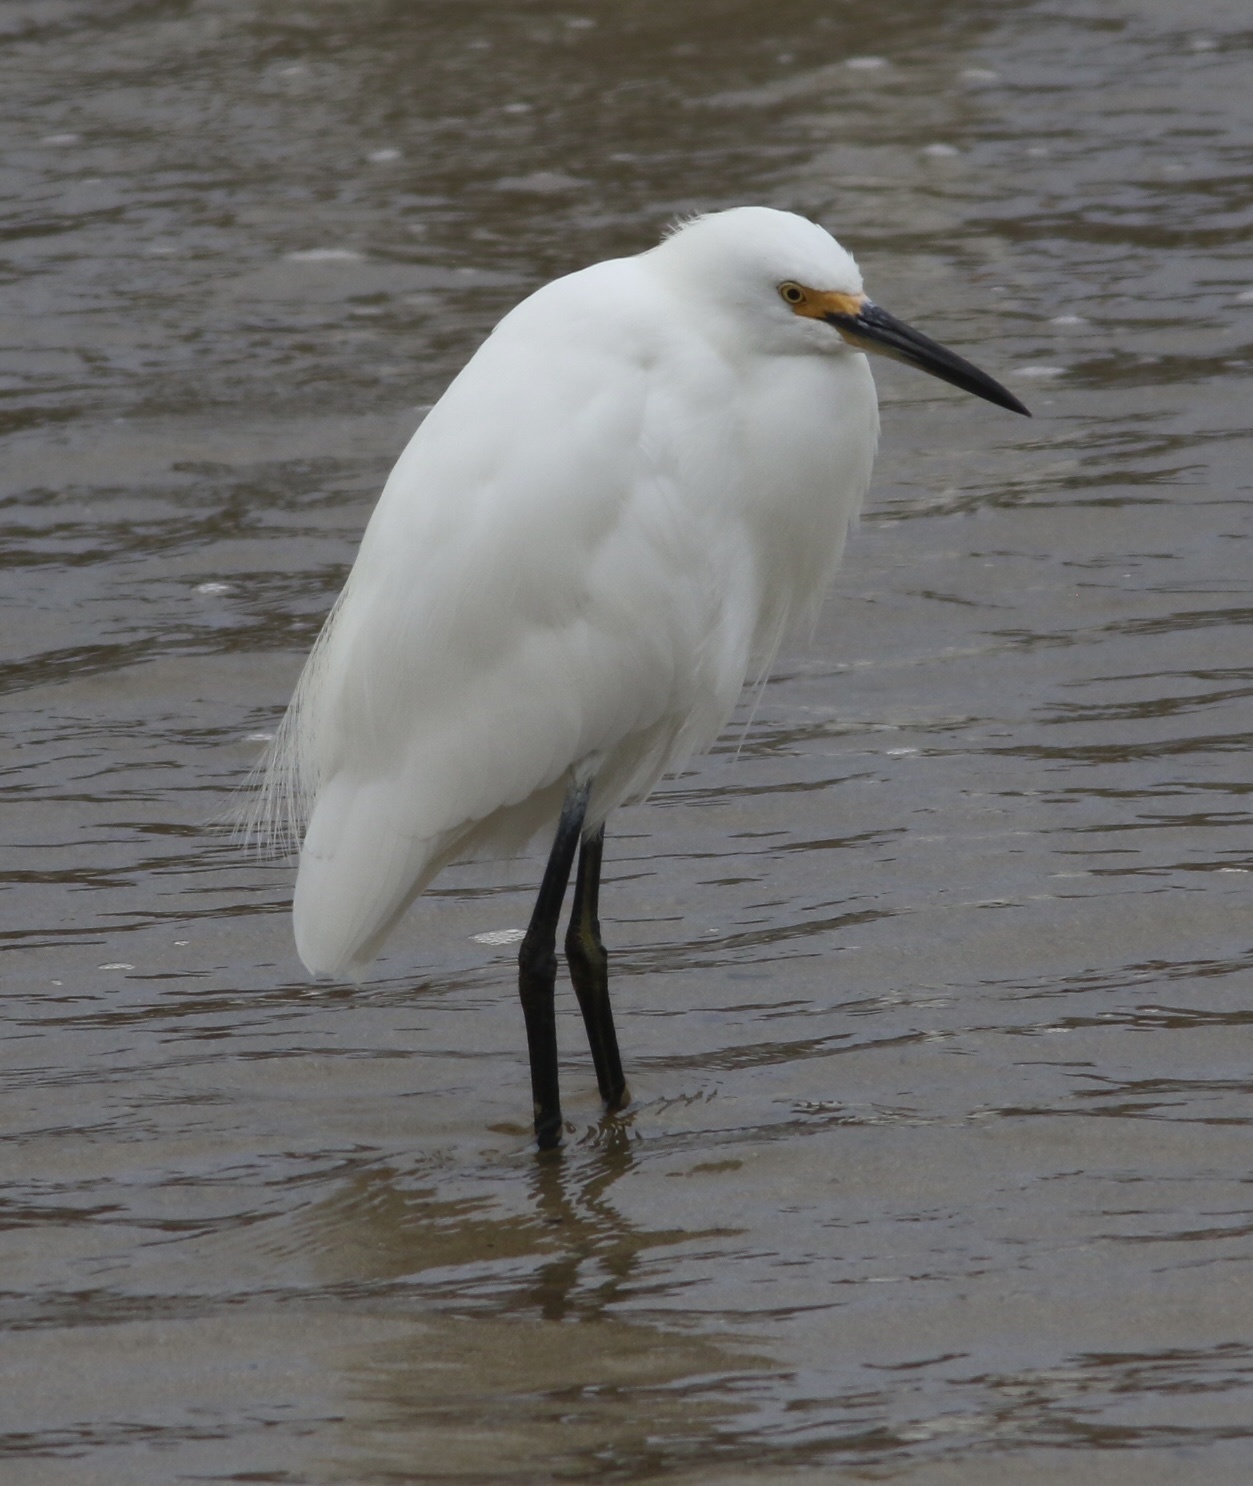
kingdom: Animalia
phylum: Chordata
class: Aves
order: Pelecaniformes
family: Ardeidae
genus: Egretta
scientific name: Egretta thula
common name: Snowy egret
